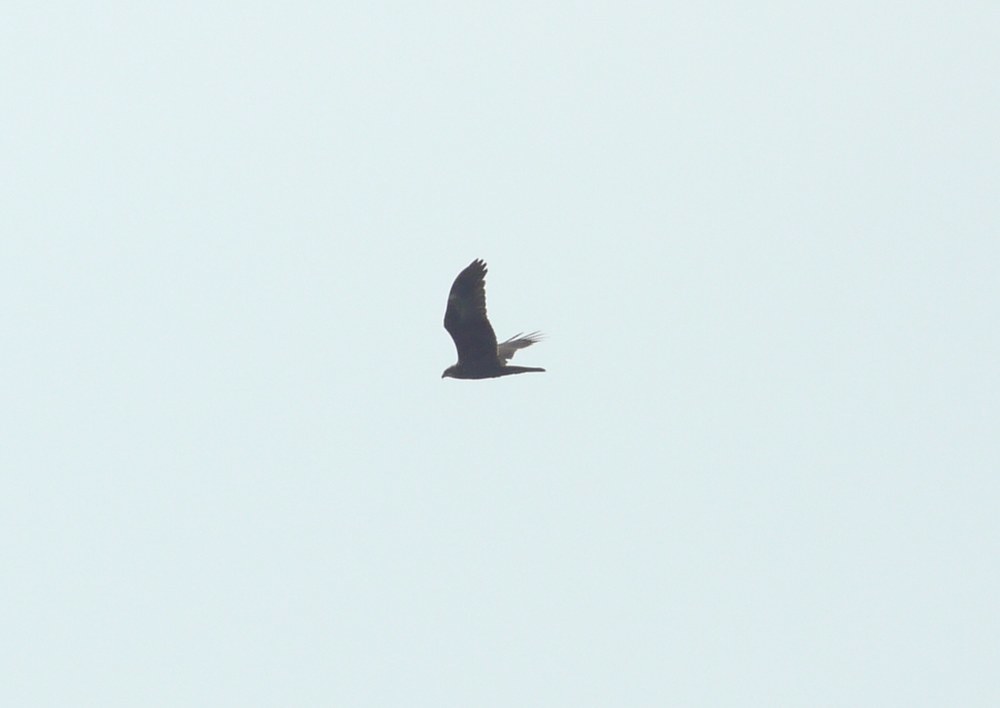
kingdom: Animalia
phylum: Chordata
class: Aves
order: Accipitriformes
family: Accipitridae
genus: Circus
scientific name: Circus aeruginosus
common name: Western marsh harrier
